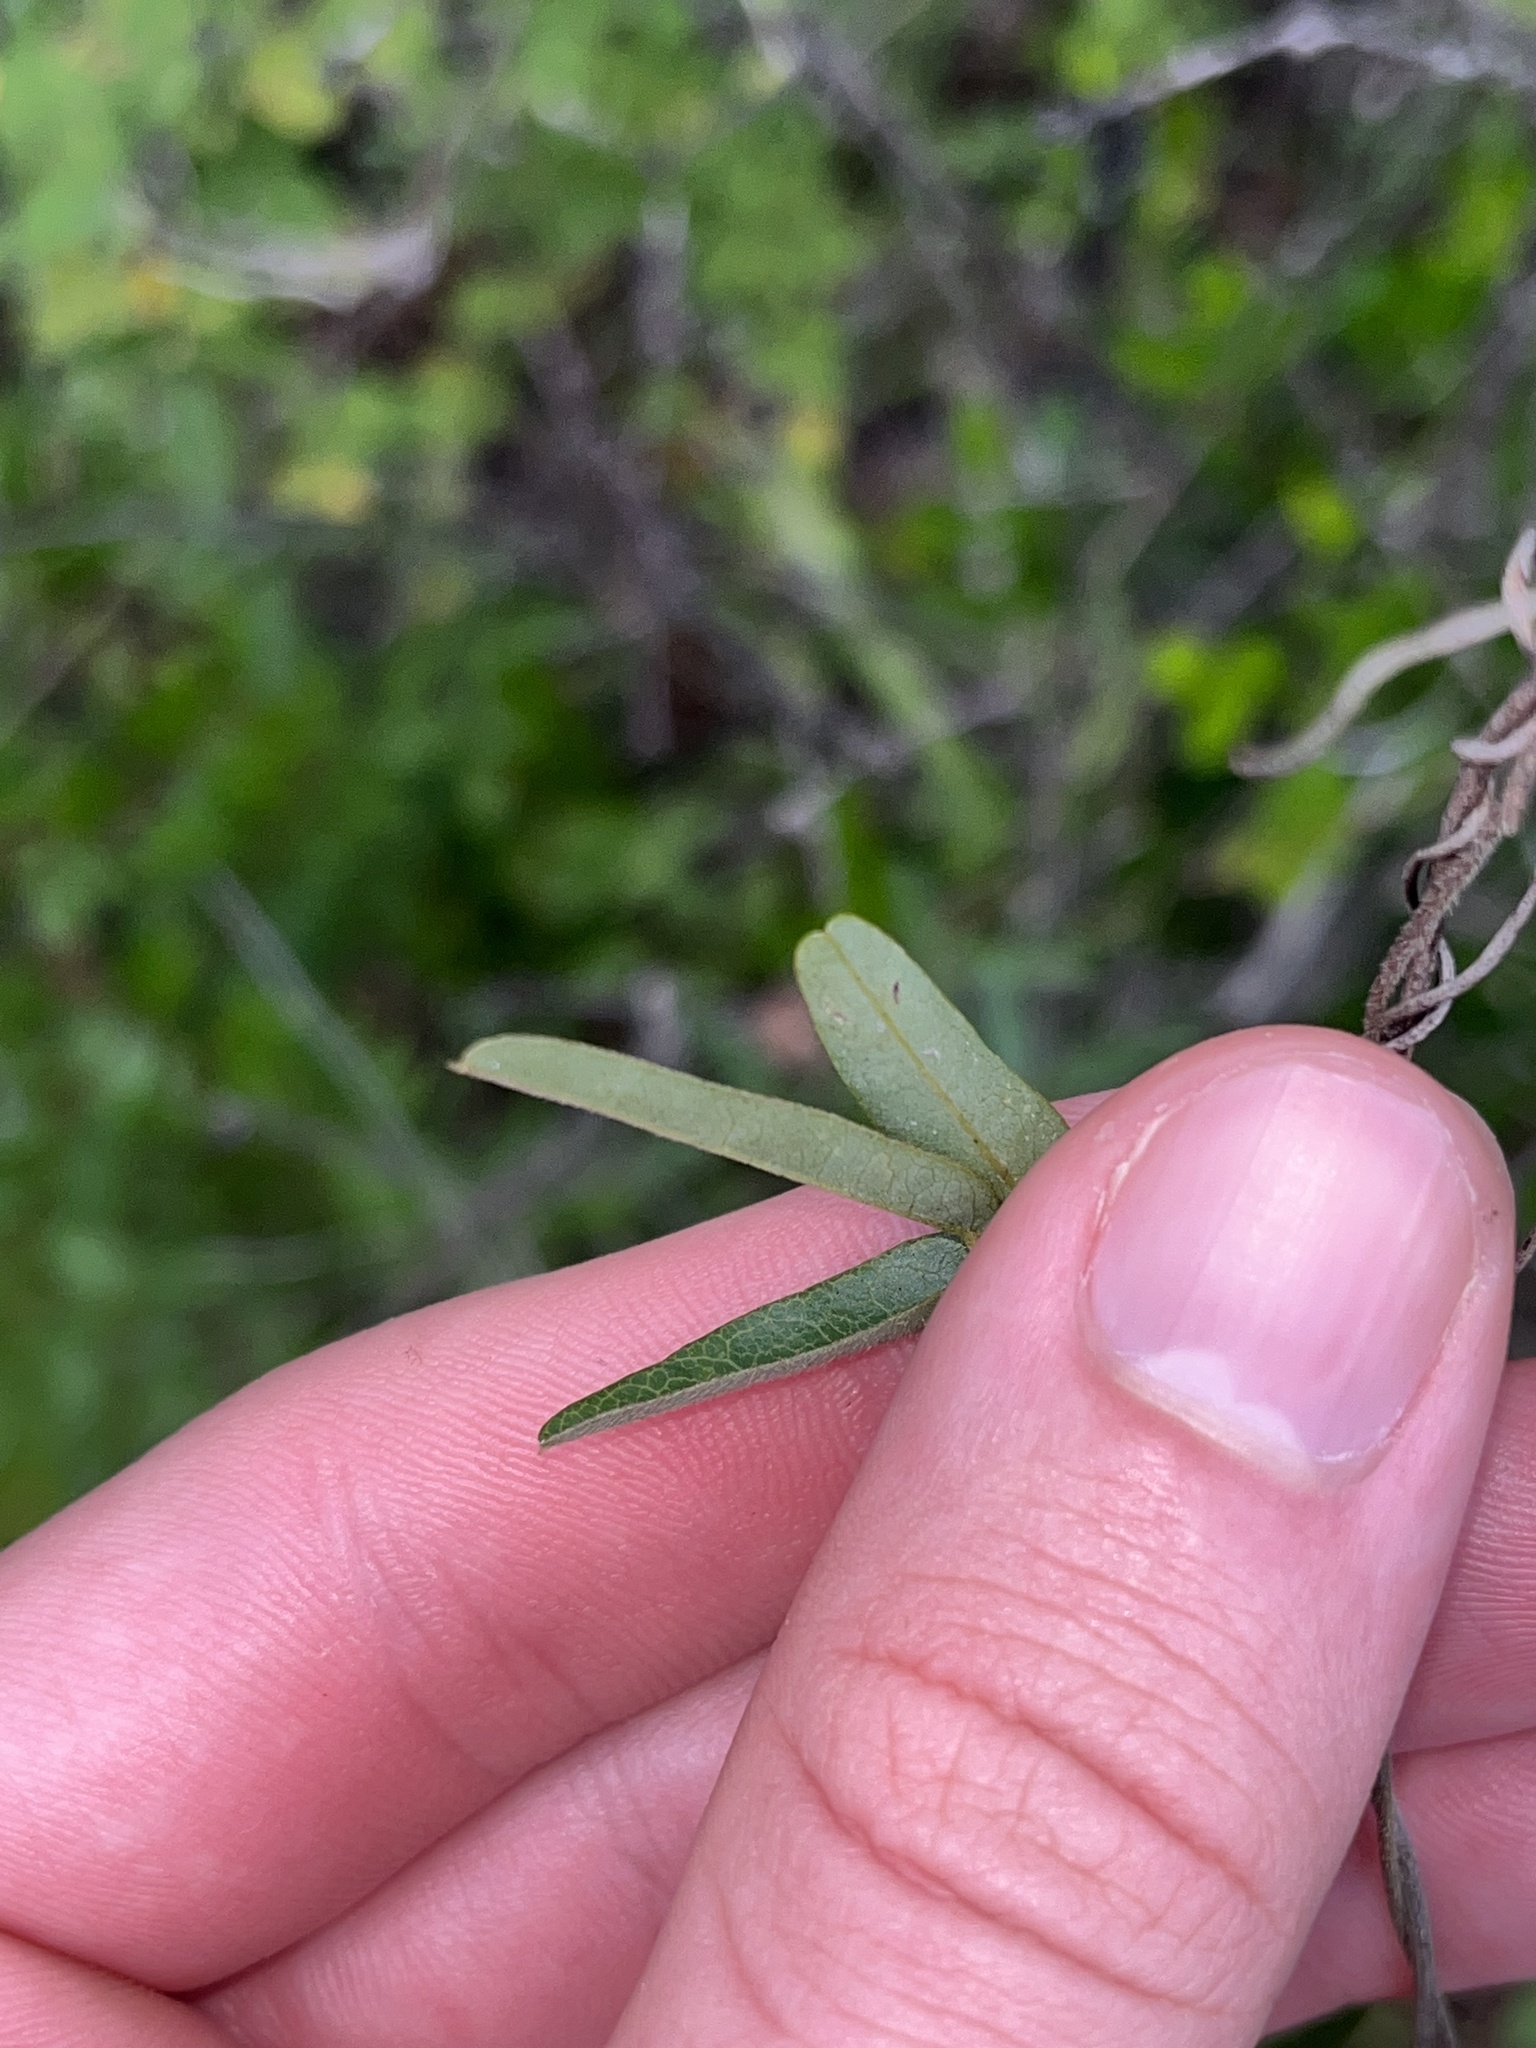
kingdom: Plantae
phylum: Tracheophyta
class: Magnoliopsida
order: Fabales
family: Fabaceae
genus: Galactia
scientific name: Galactia volubilis
